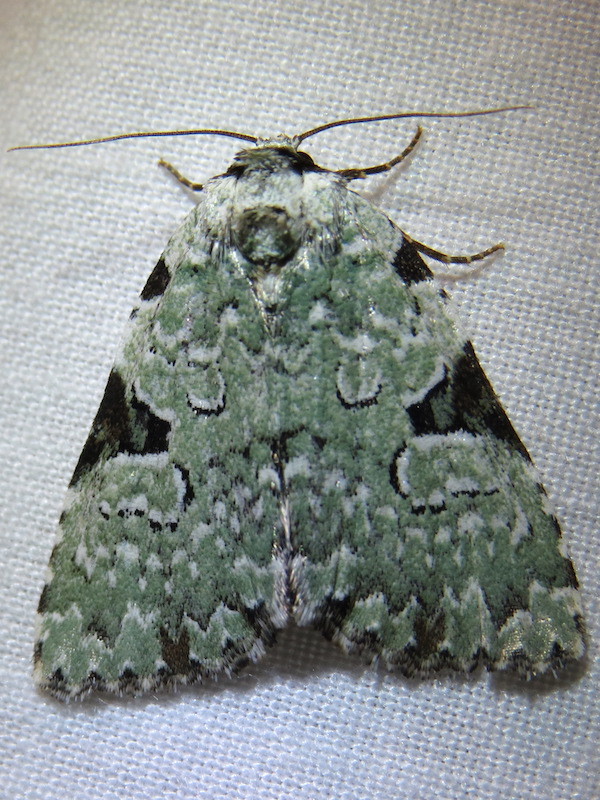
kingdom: Animalia
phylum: Arthropoda
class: Insecta
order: Lepidoptera
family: Noctuidae
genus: Leuconycta
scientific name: Leuconycta diphteroides
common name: Green leuconycta moth
